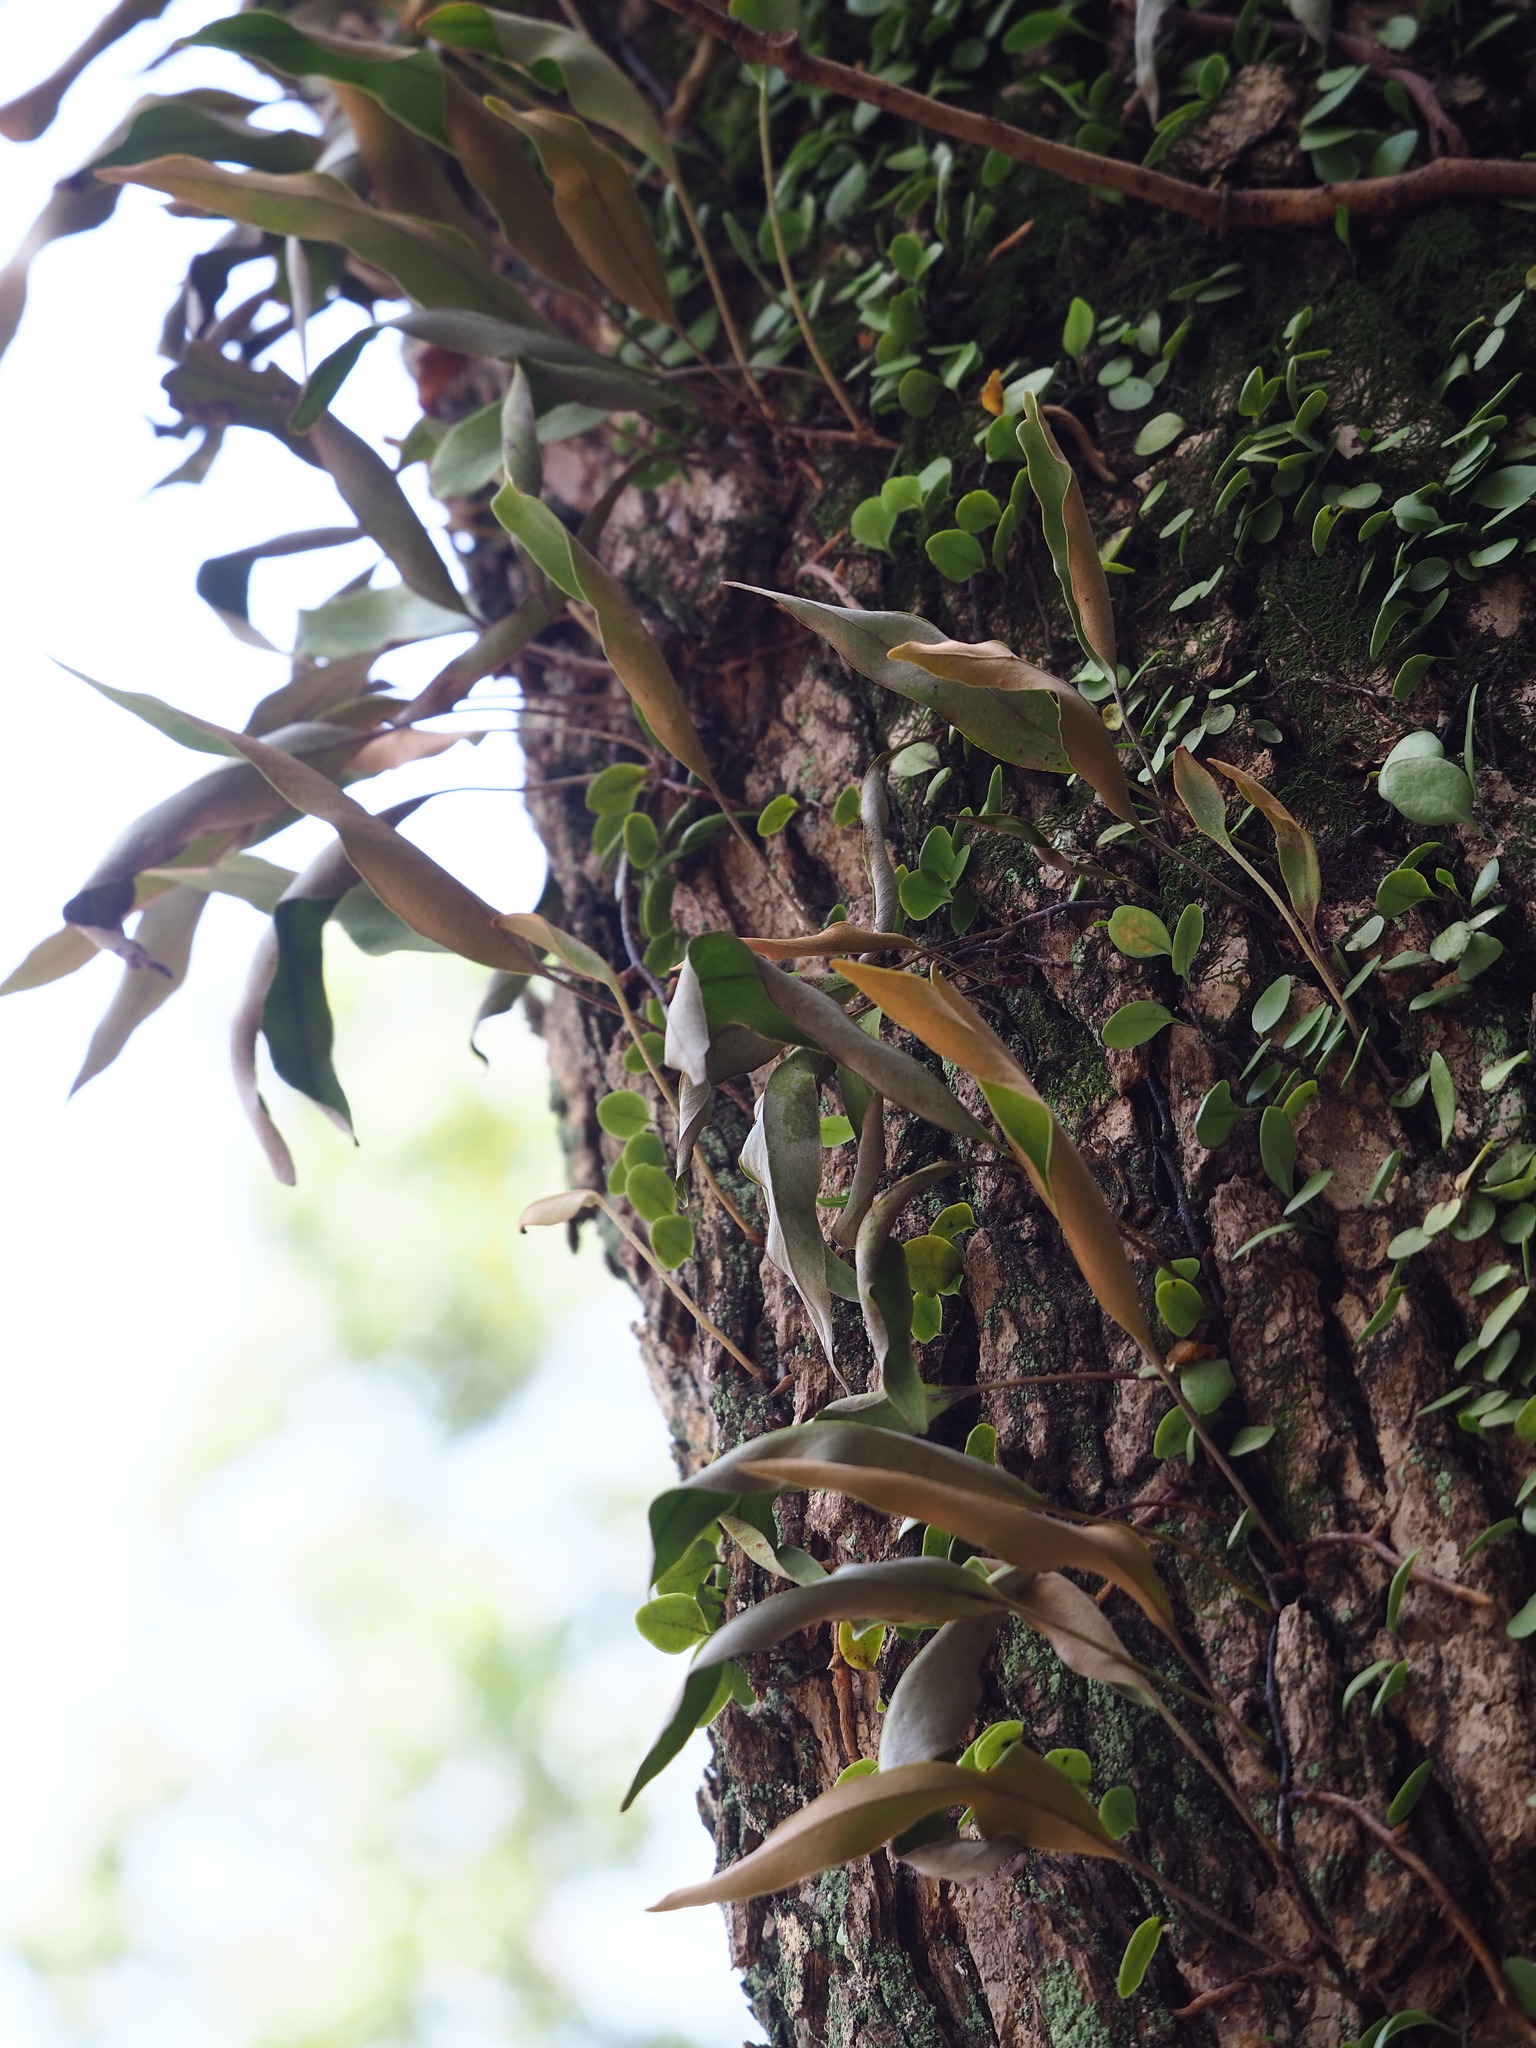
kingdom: Plantae
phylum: Tracheophyta
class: Polypodiopsida
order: Polypodiales
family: Polypodiaceae
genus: Pyrrosia
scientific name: Pyrrosia lingua
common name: Felt fern
